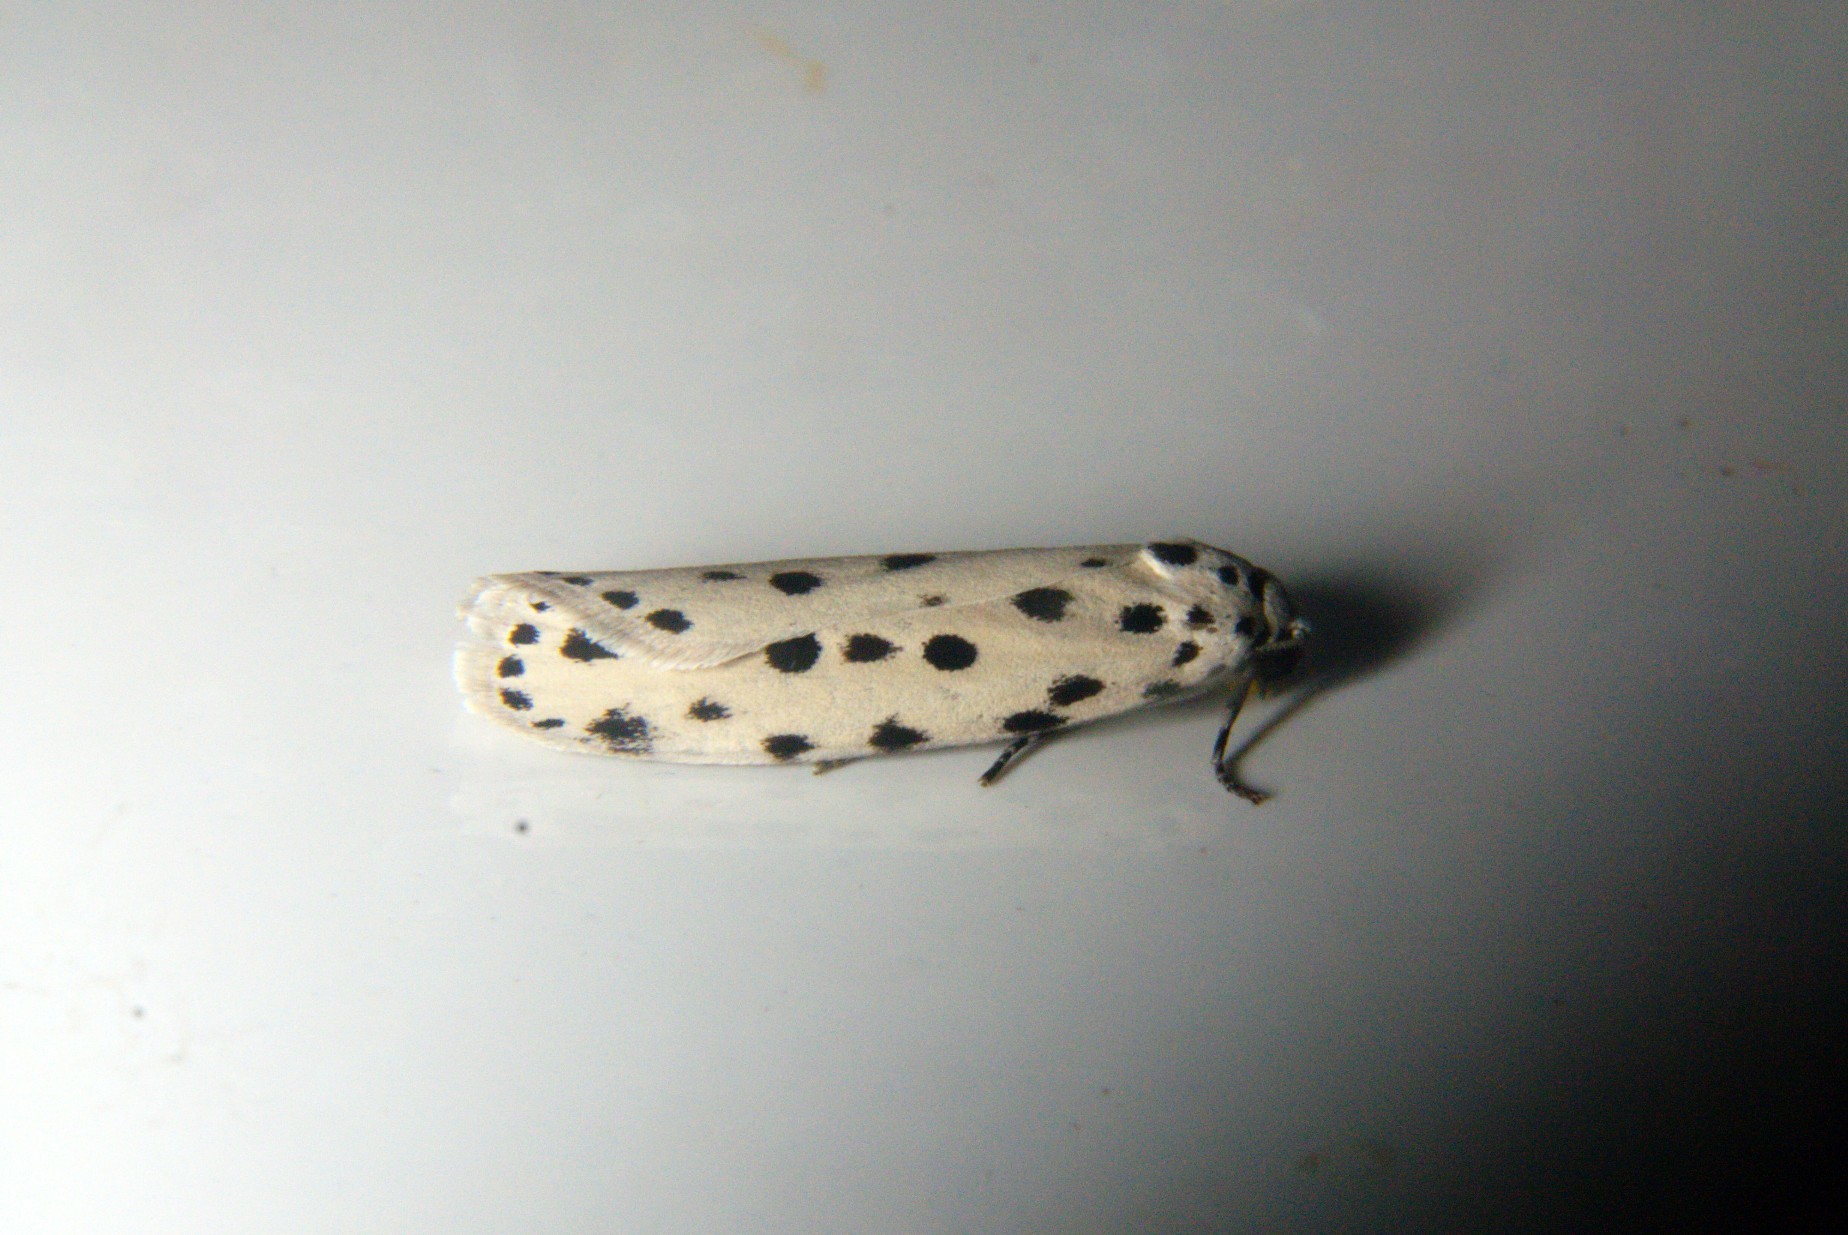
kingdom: Animalia
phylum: Arthropoda
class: Insecta
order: Lepidoptera
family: Ethmiidae
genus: Ethmia
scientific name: Ethmia ermineella
